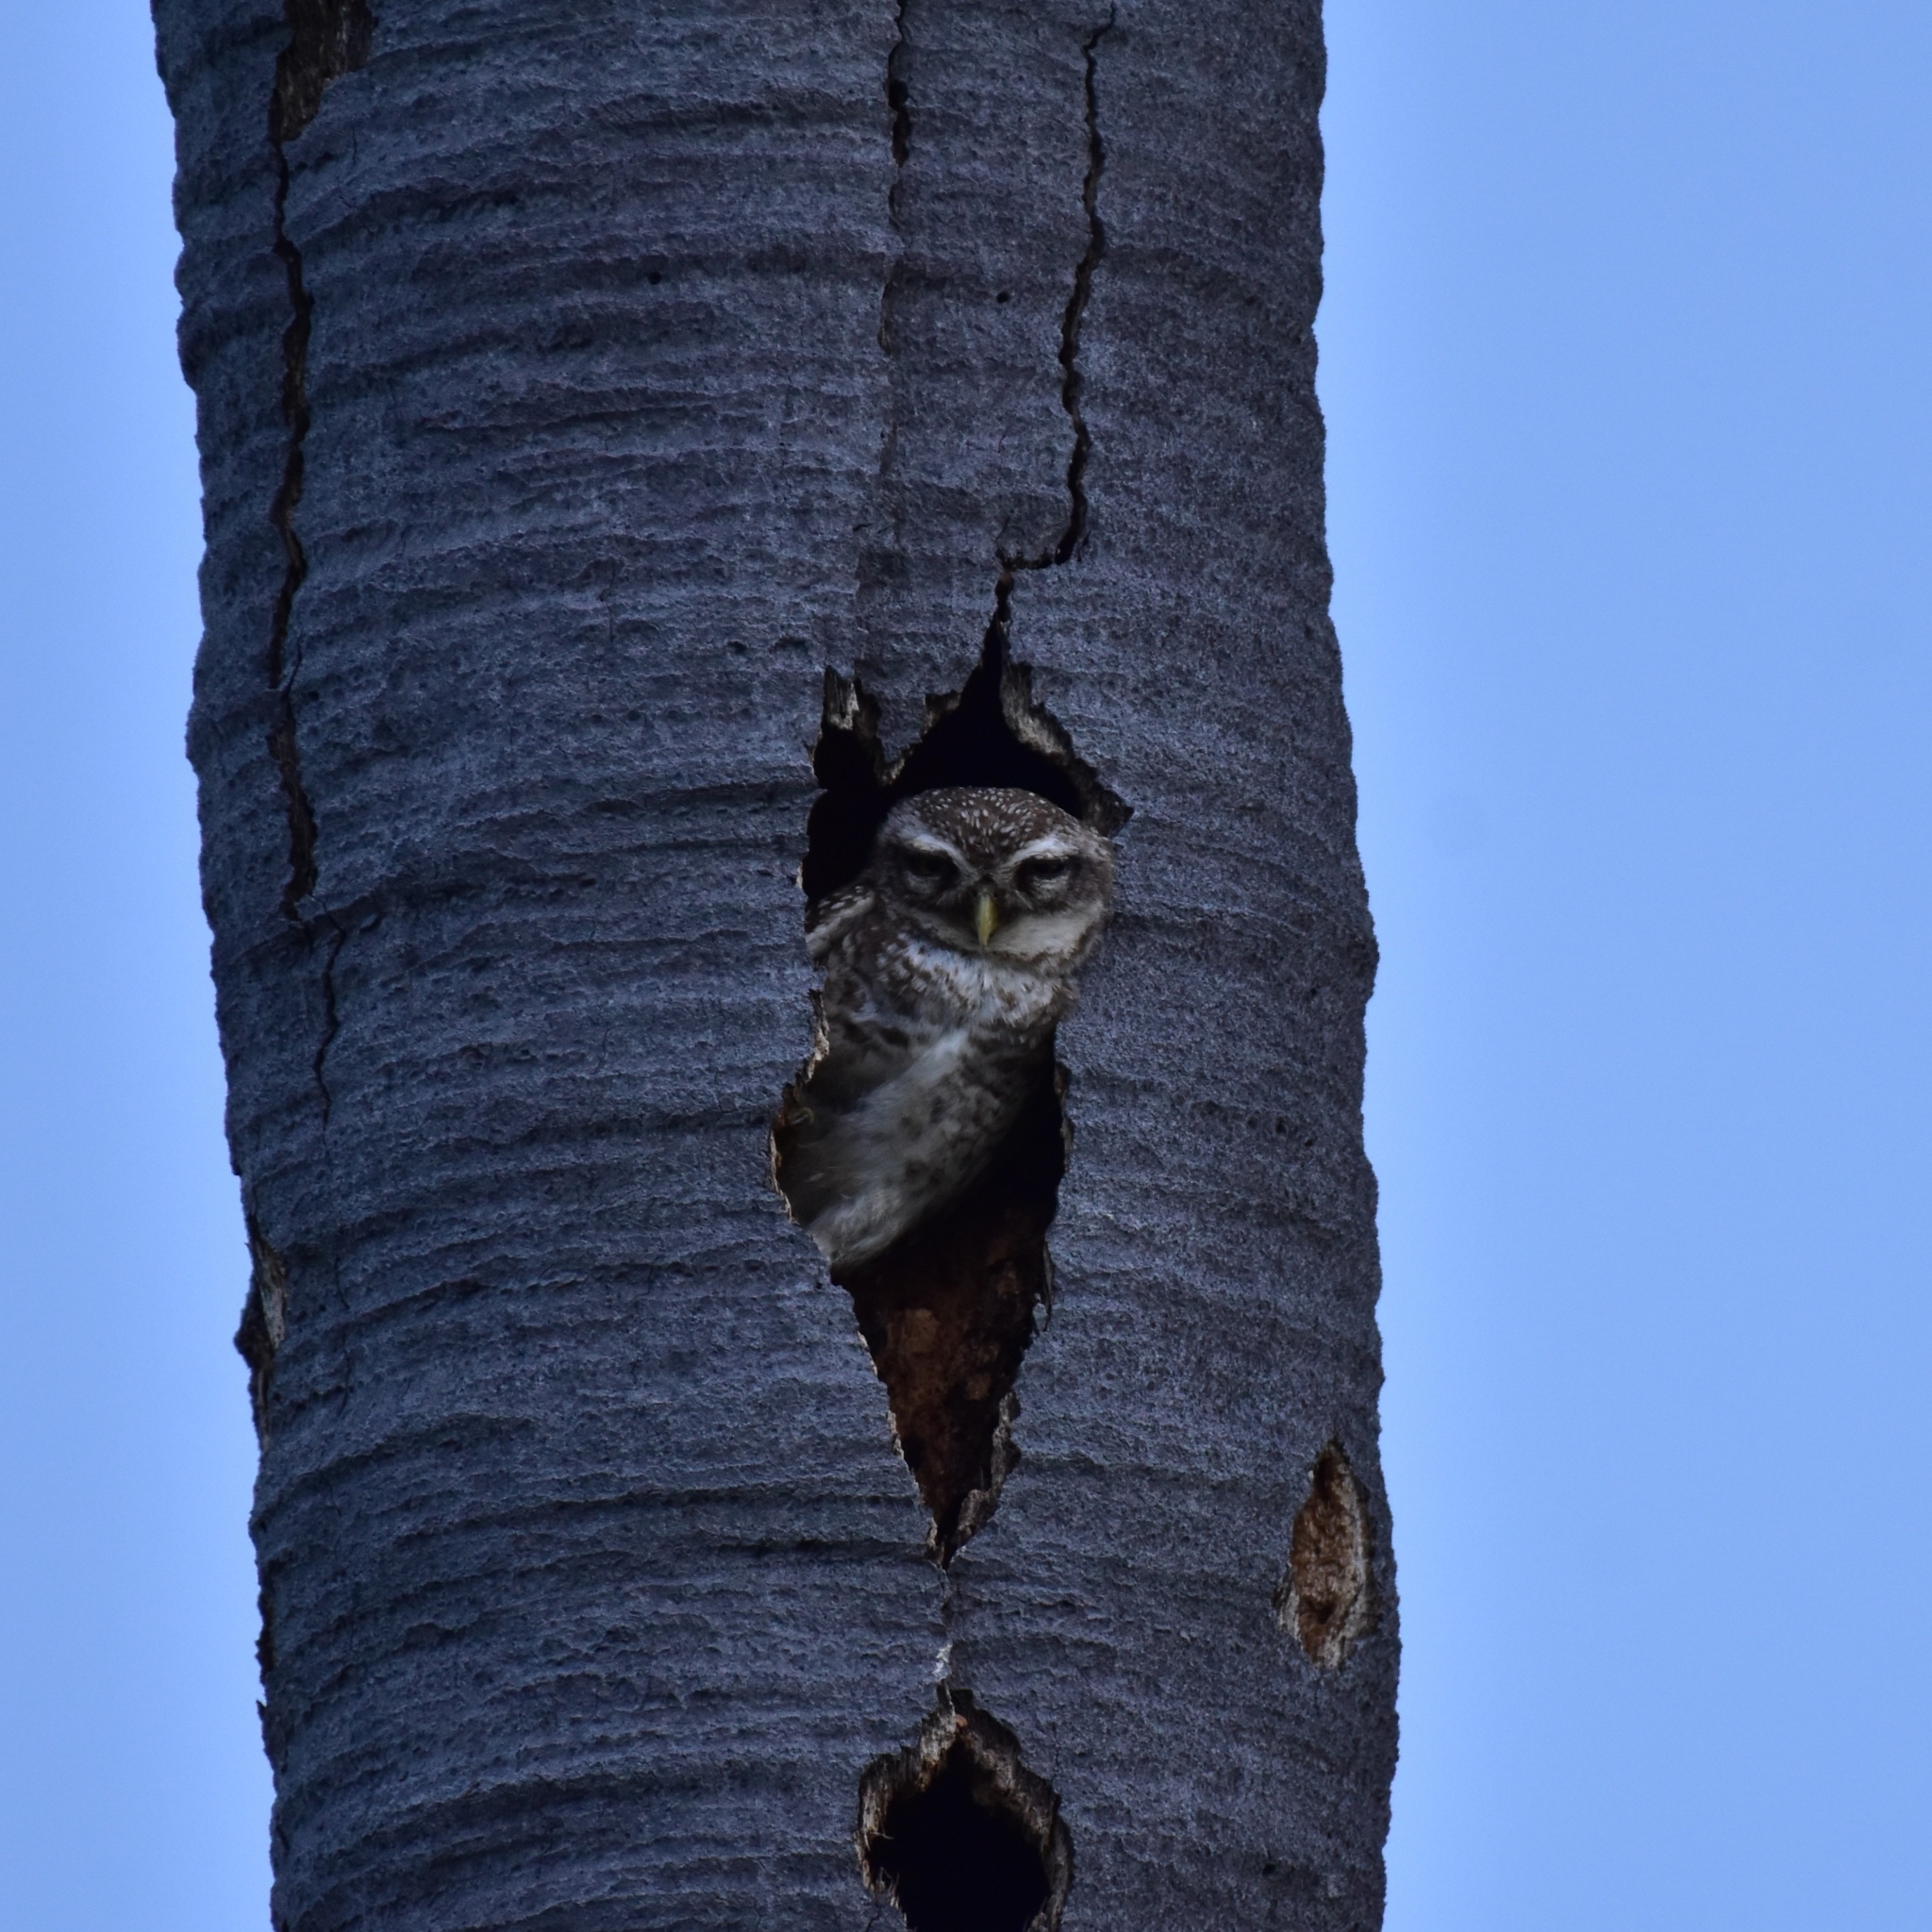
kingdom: Animalia
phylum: Chordata
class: Aves
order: Strigiformes
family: Strigidae
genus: Athene
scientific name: Athene brama
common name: Spotted owlet
